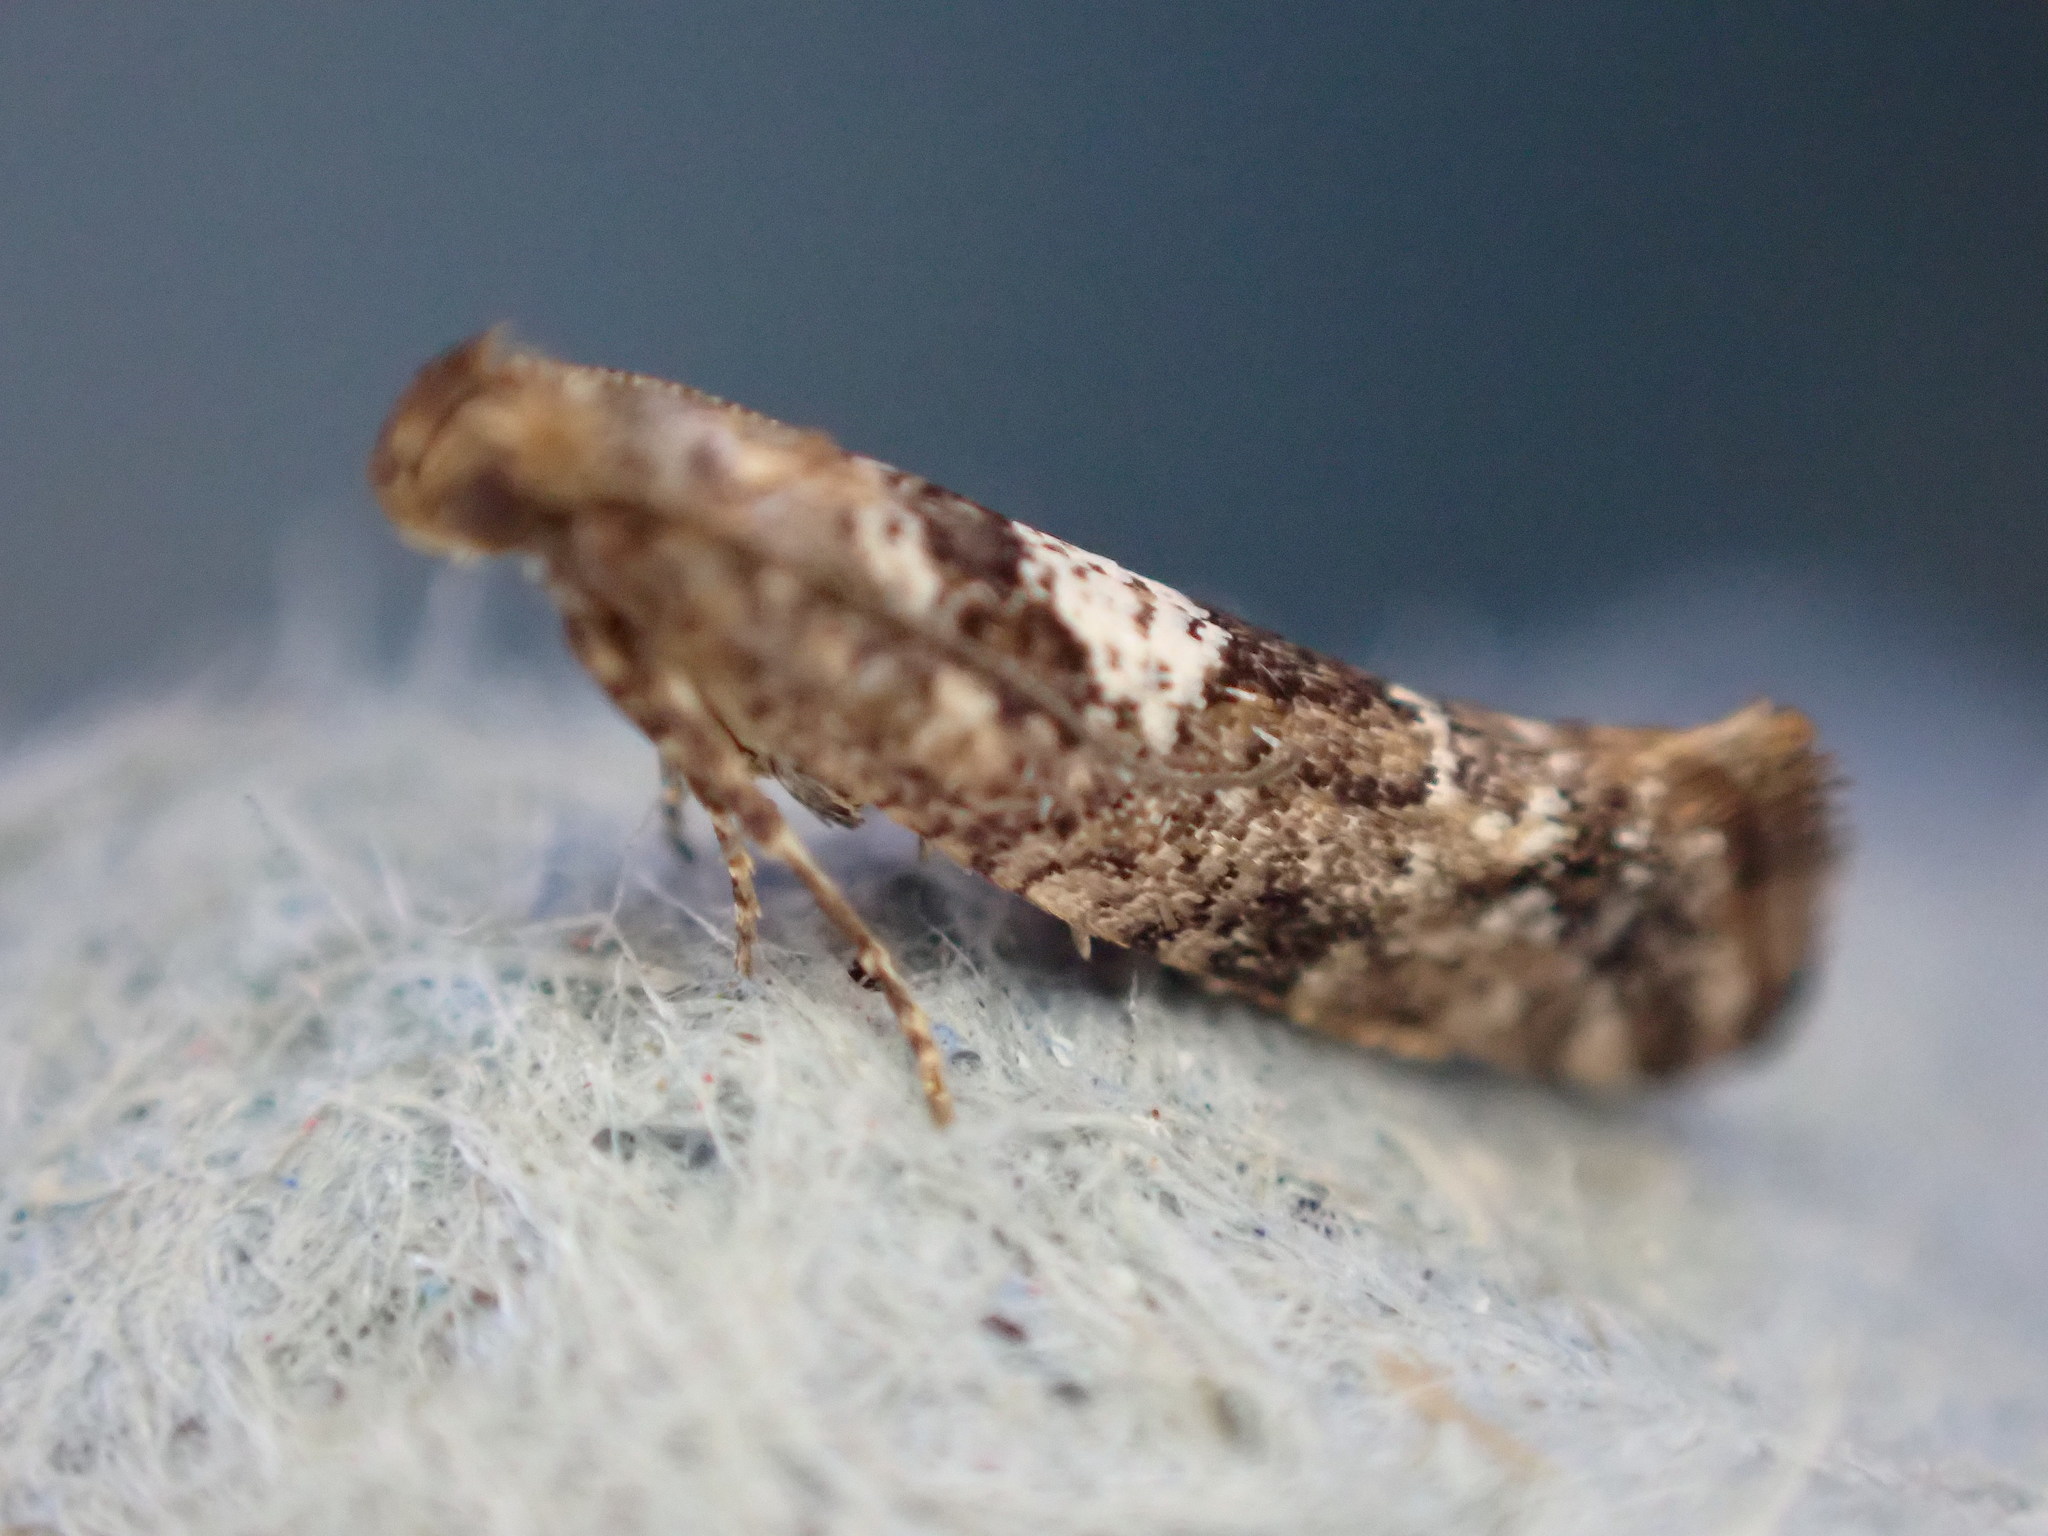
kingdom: Animalia
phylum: Arthropoda
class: Insecta
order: Lepidoptera
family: Glyphipterigidae
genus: Acrolepia
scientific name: Acrolepia assectella
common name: Onion leaf miner
